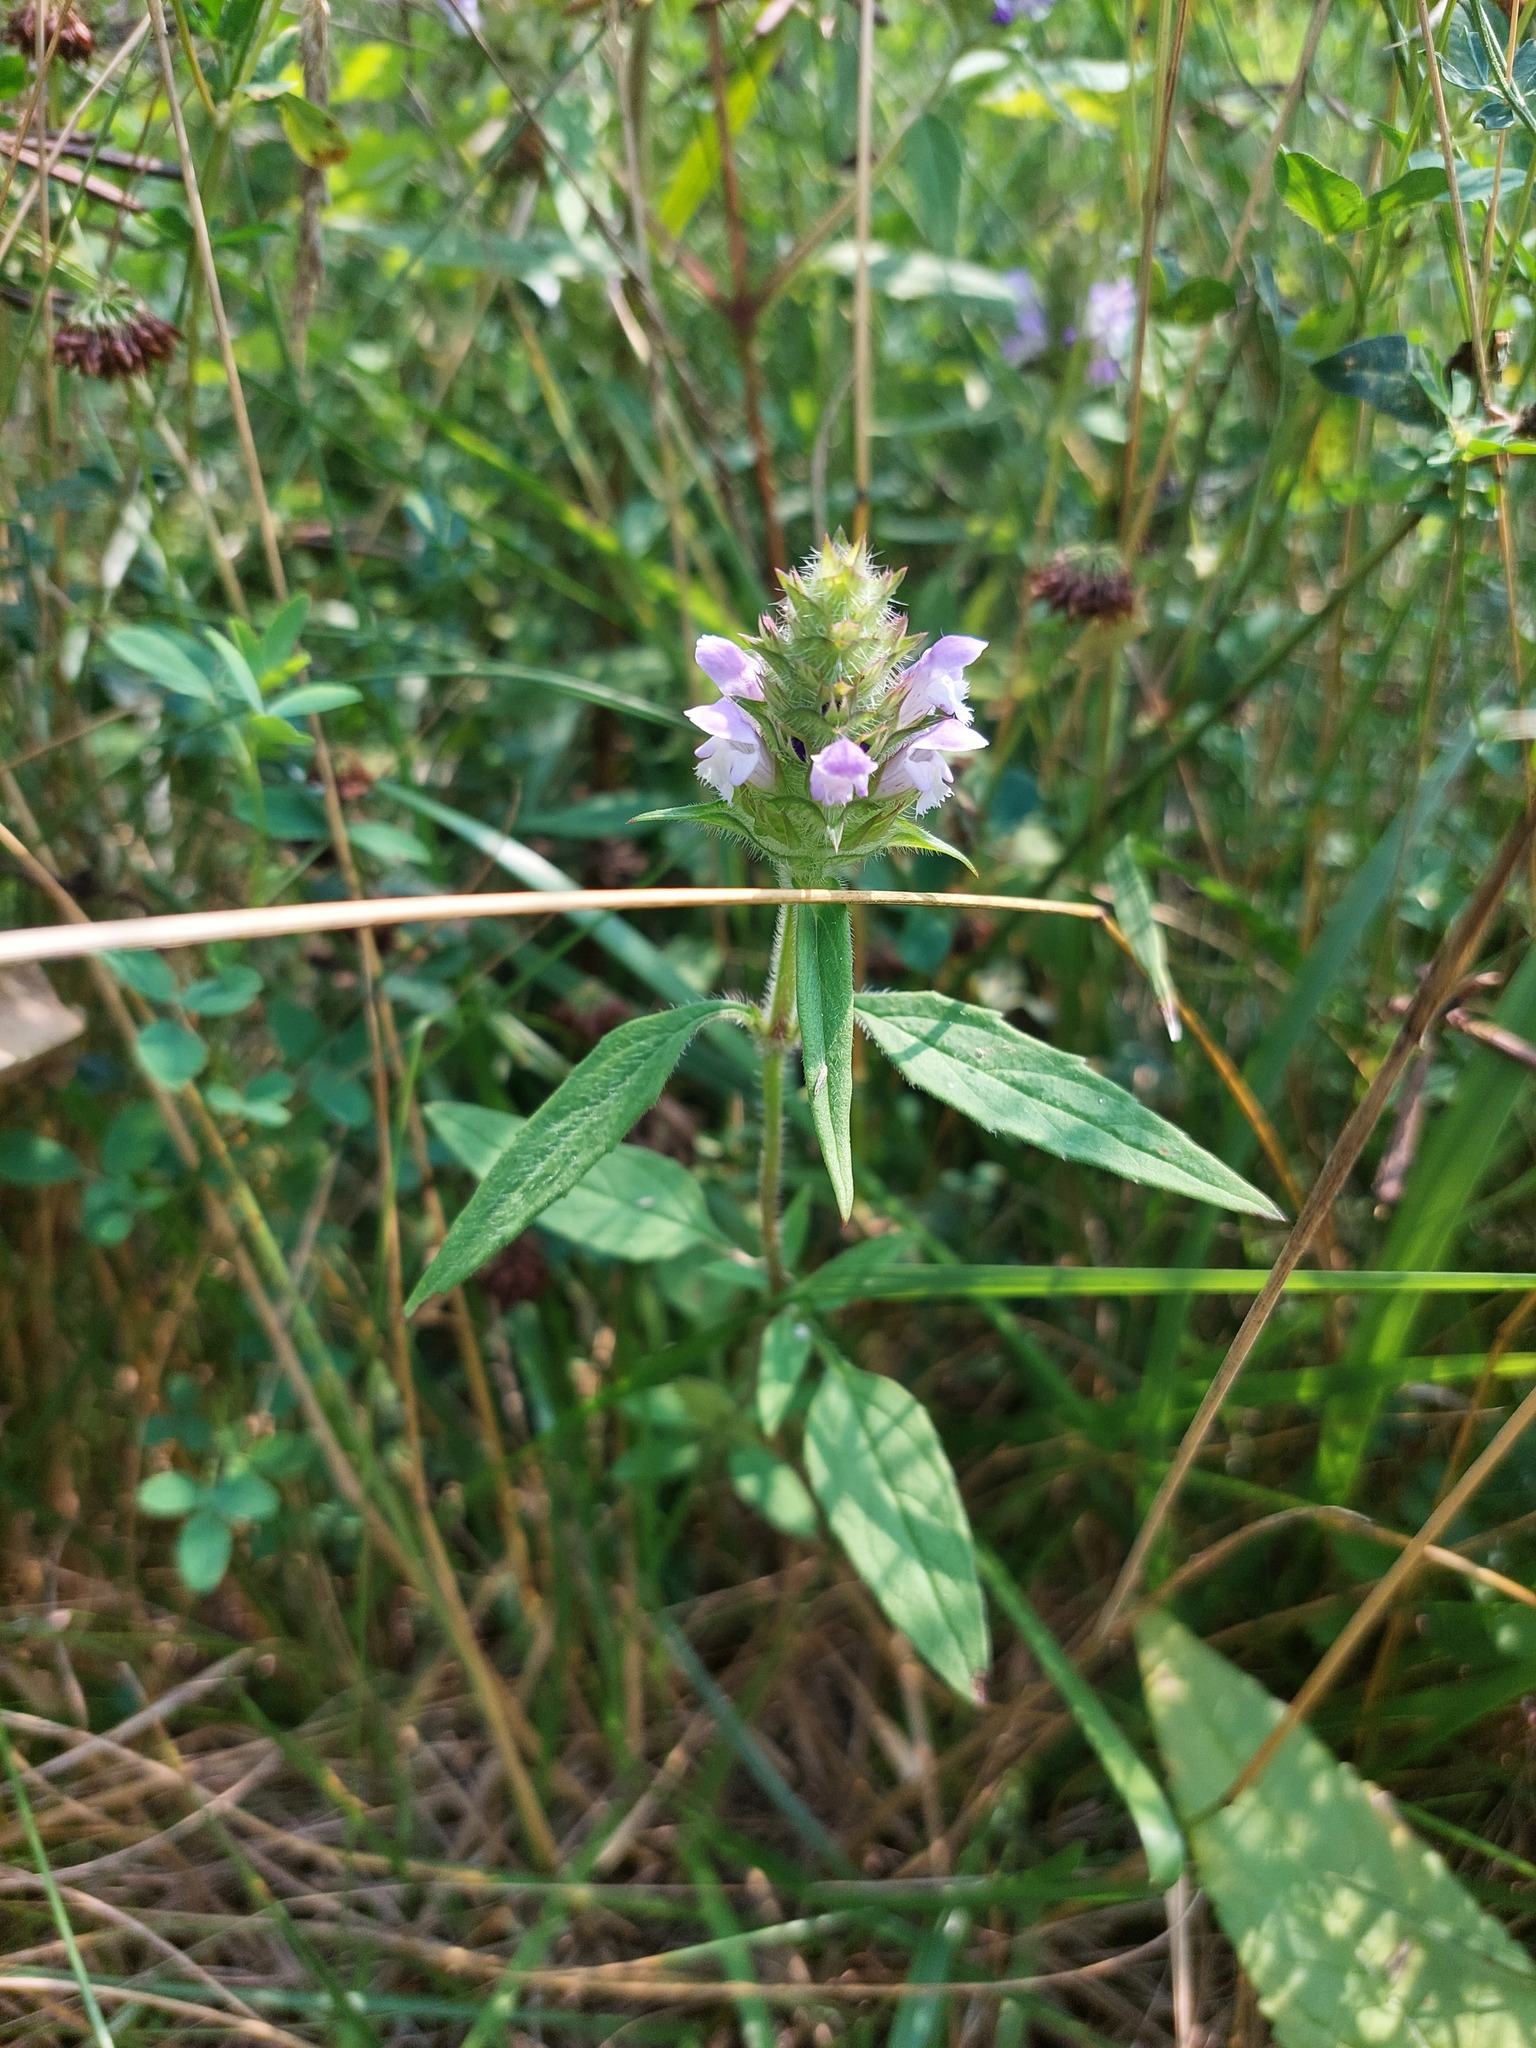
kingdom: Plantae
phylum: Tracheophyta
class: Magnoliopsida
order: Lamiales
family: Lamiaceae
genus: Prunella
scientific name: Prunella vulgaris
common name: Heal-all
